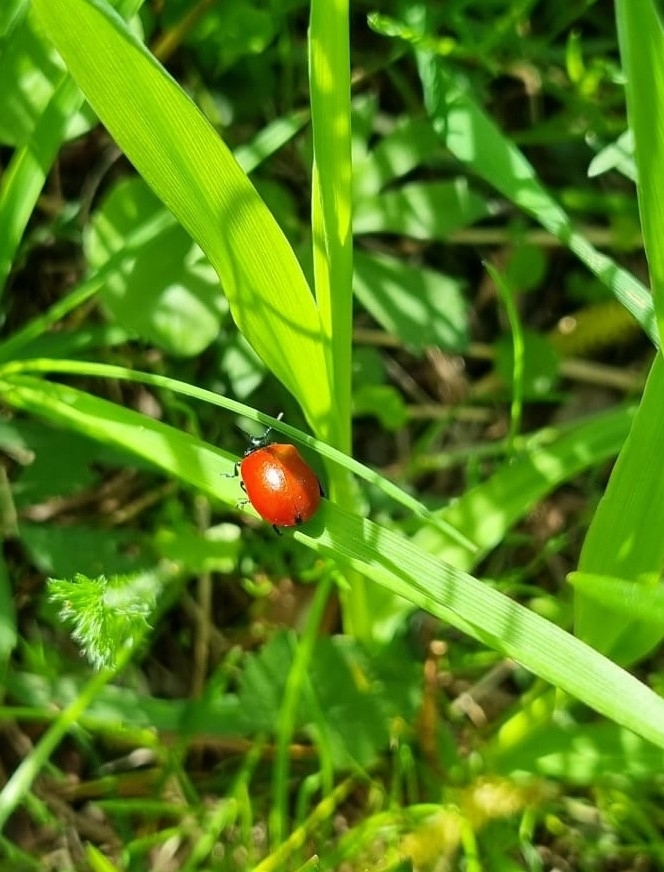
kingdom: Animalia
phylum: Arthropoda
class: Insecta
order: Coleoptera
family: Chrysomelidae
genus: Chrysomela
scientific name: Chrysomela populi
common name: Red poplar leaf beetle
